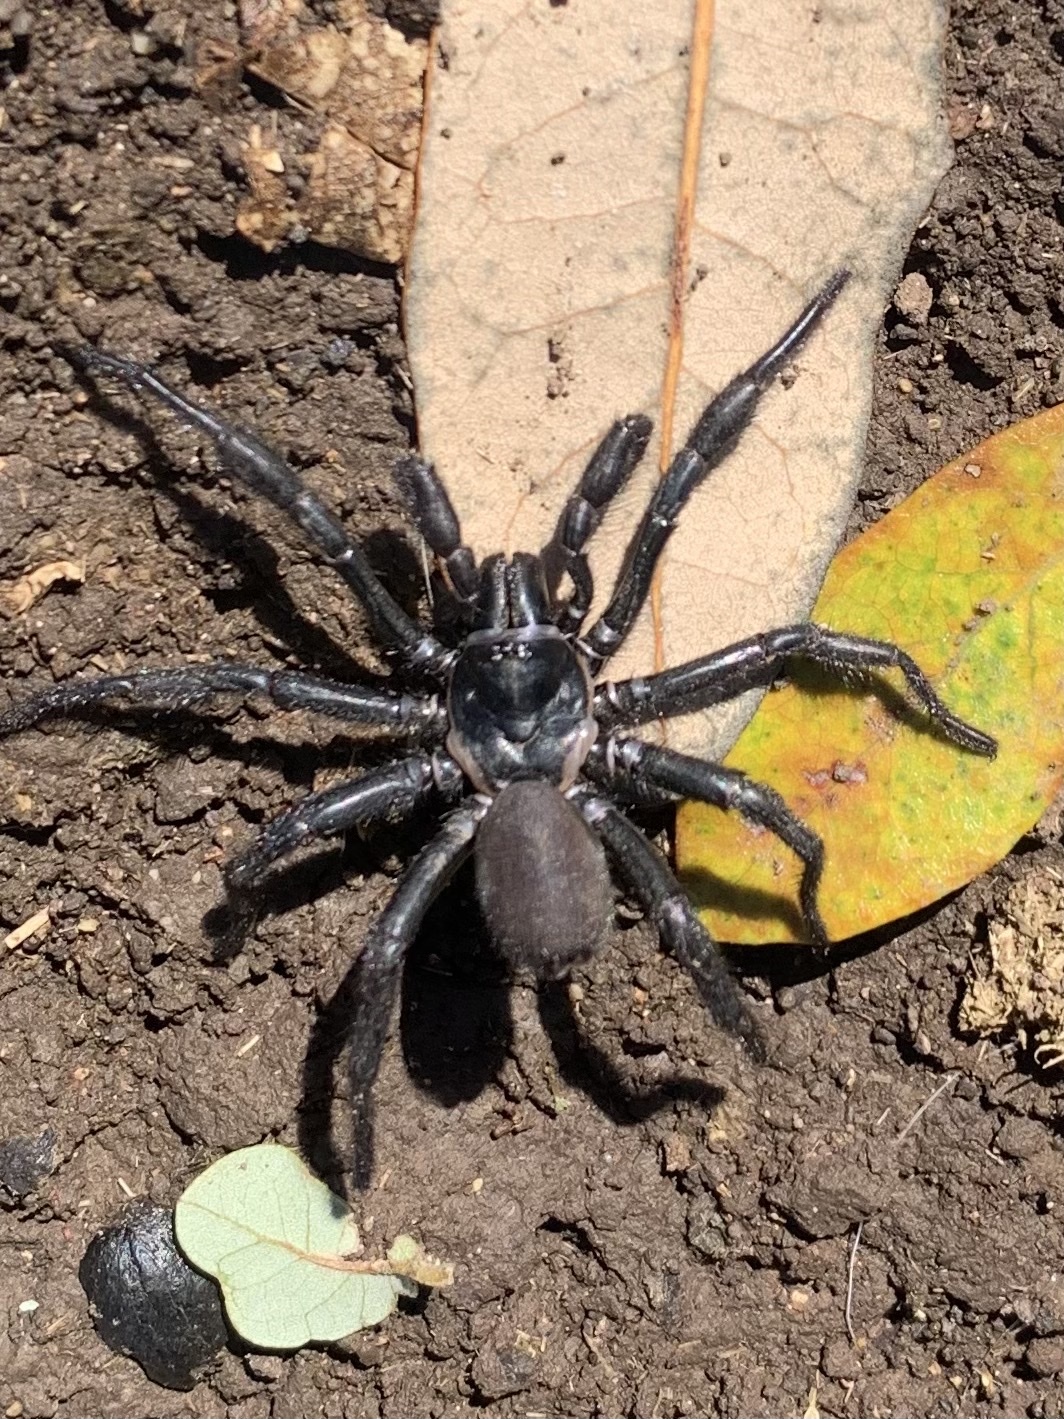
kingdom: Animalia
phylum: Arthropoda
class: Arachnida
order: Araneae
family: Euctenizidae
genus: Eucteniza
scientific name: Eucteniza relata
